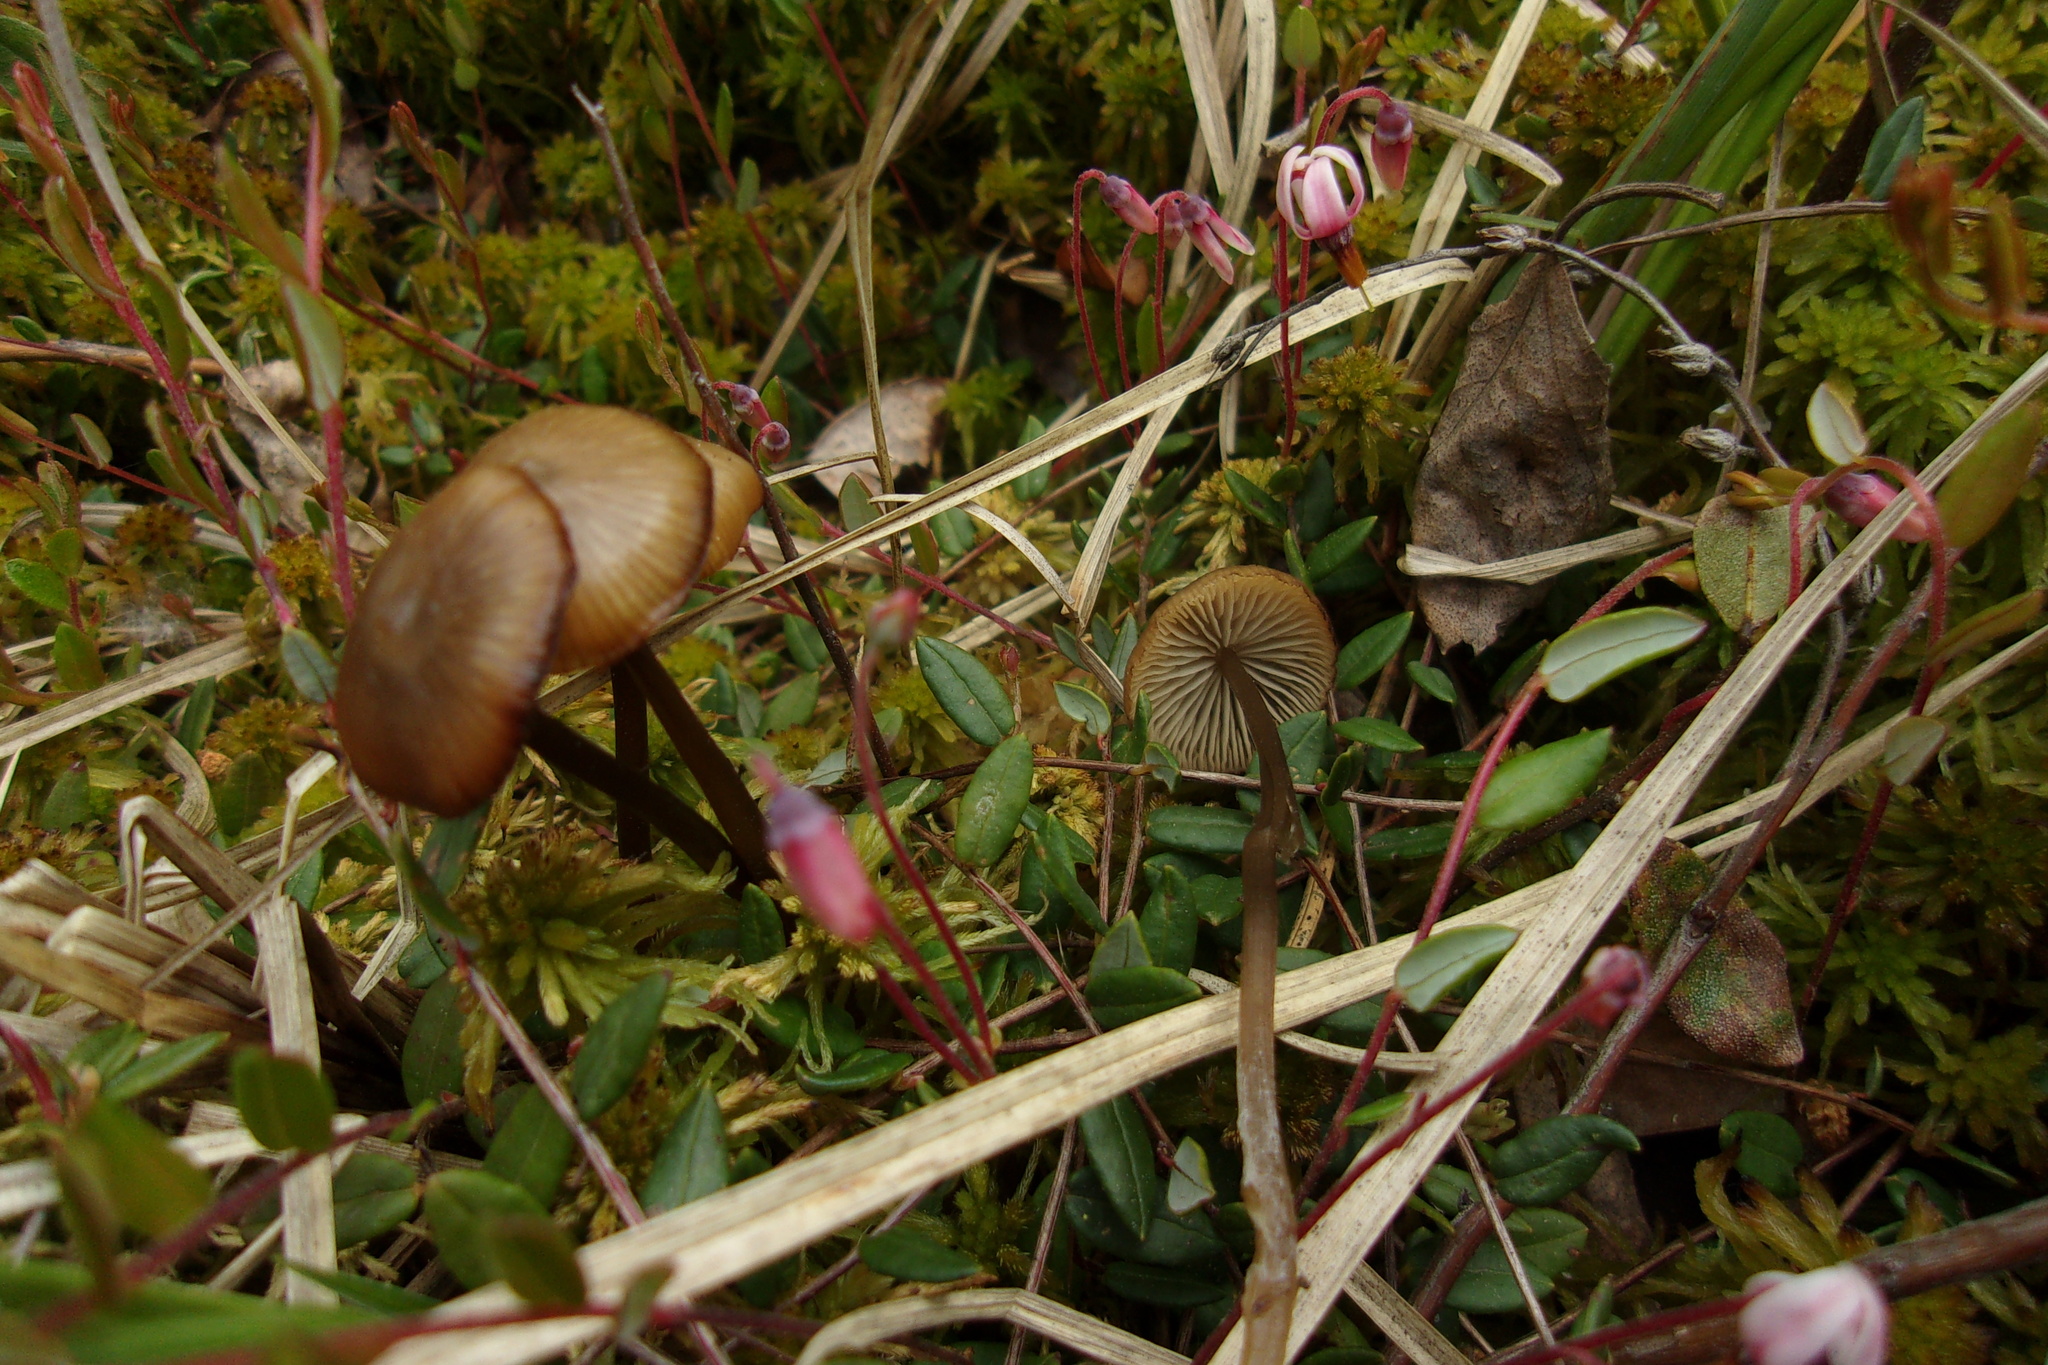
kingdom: Fungi
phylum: Basidiomycota
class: Agaricomycetes
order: Agaricales
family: Lyophyllaceae
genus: Sphagnurus
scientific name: Sphagnurus paluster
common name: Sphagnum greyling
